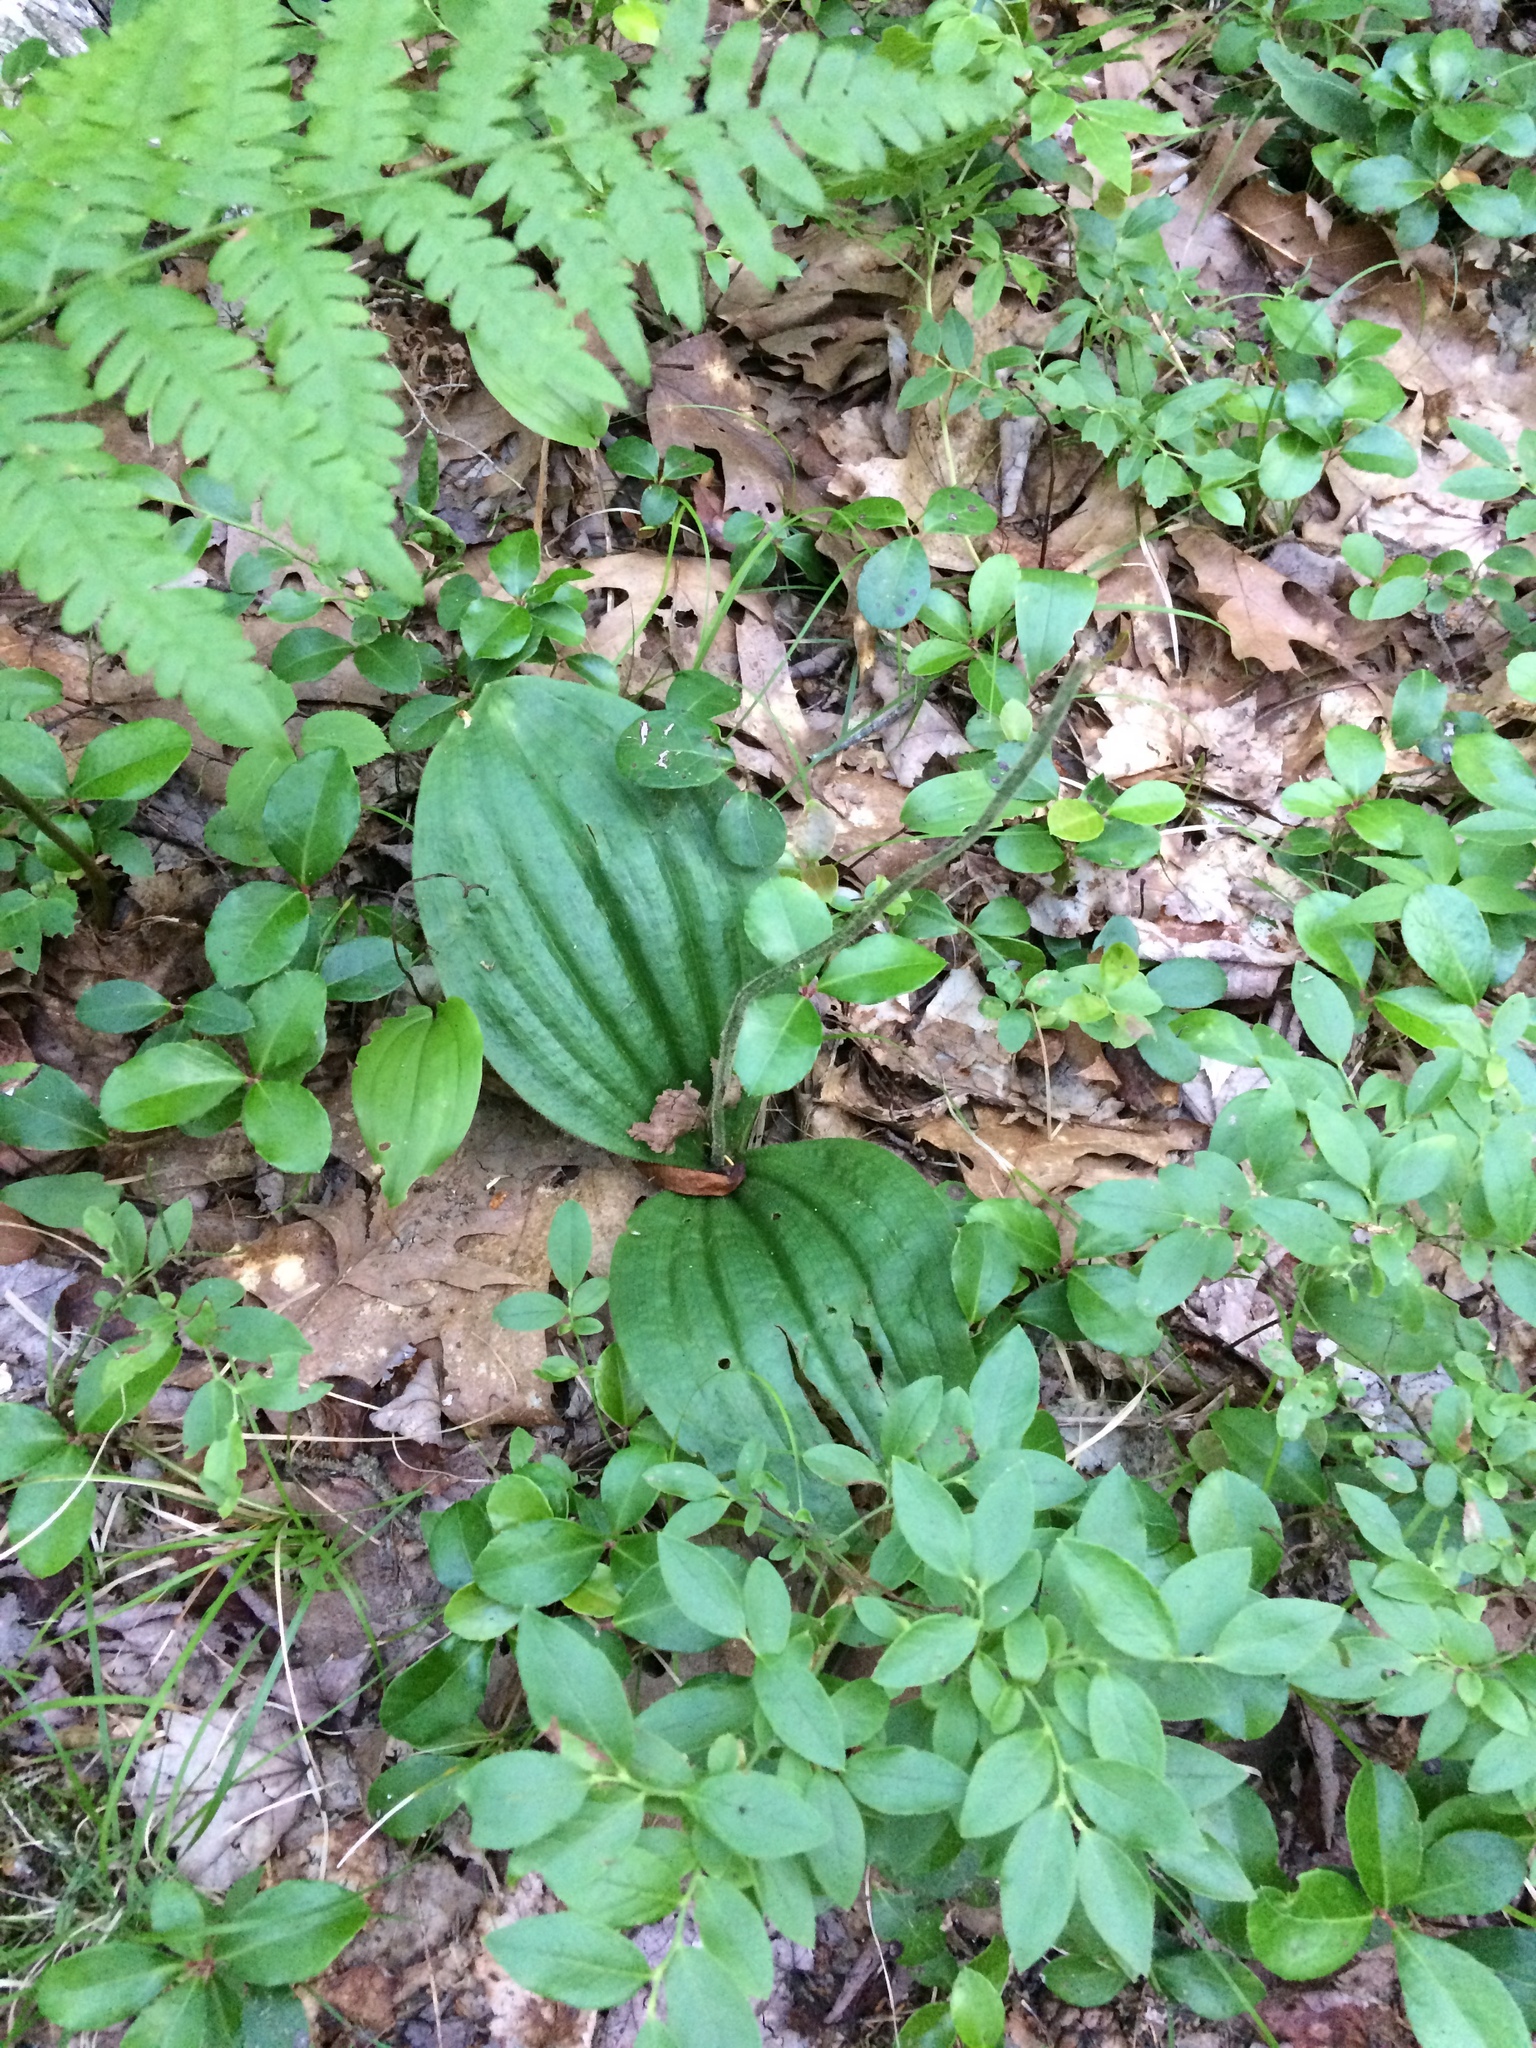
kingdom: Plantae
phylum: Tracheophyta
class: Liliopsida
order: Asparagales
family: Orchidaceae
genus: Cypripedium
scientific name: Cypripedium acaule
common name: Pink lady's-slipper
